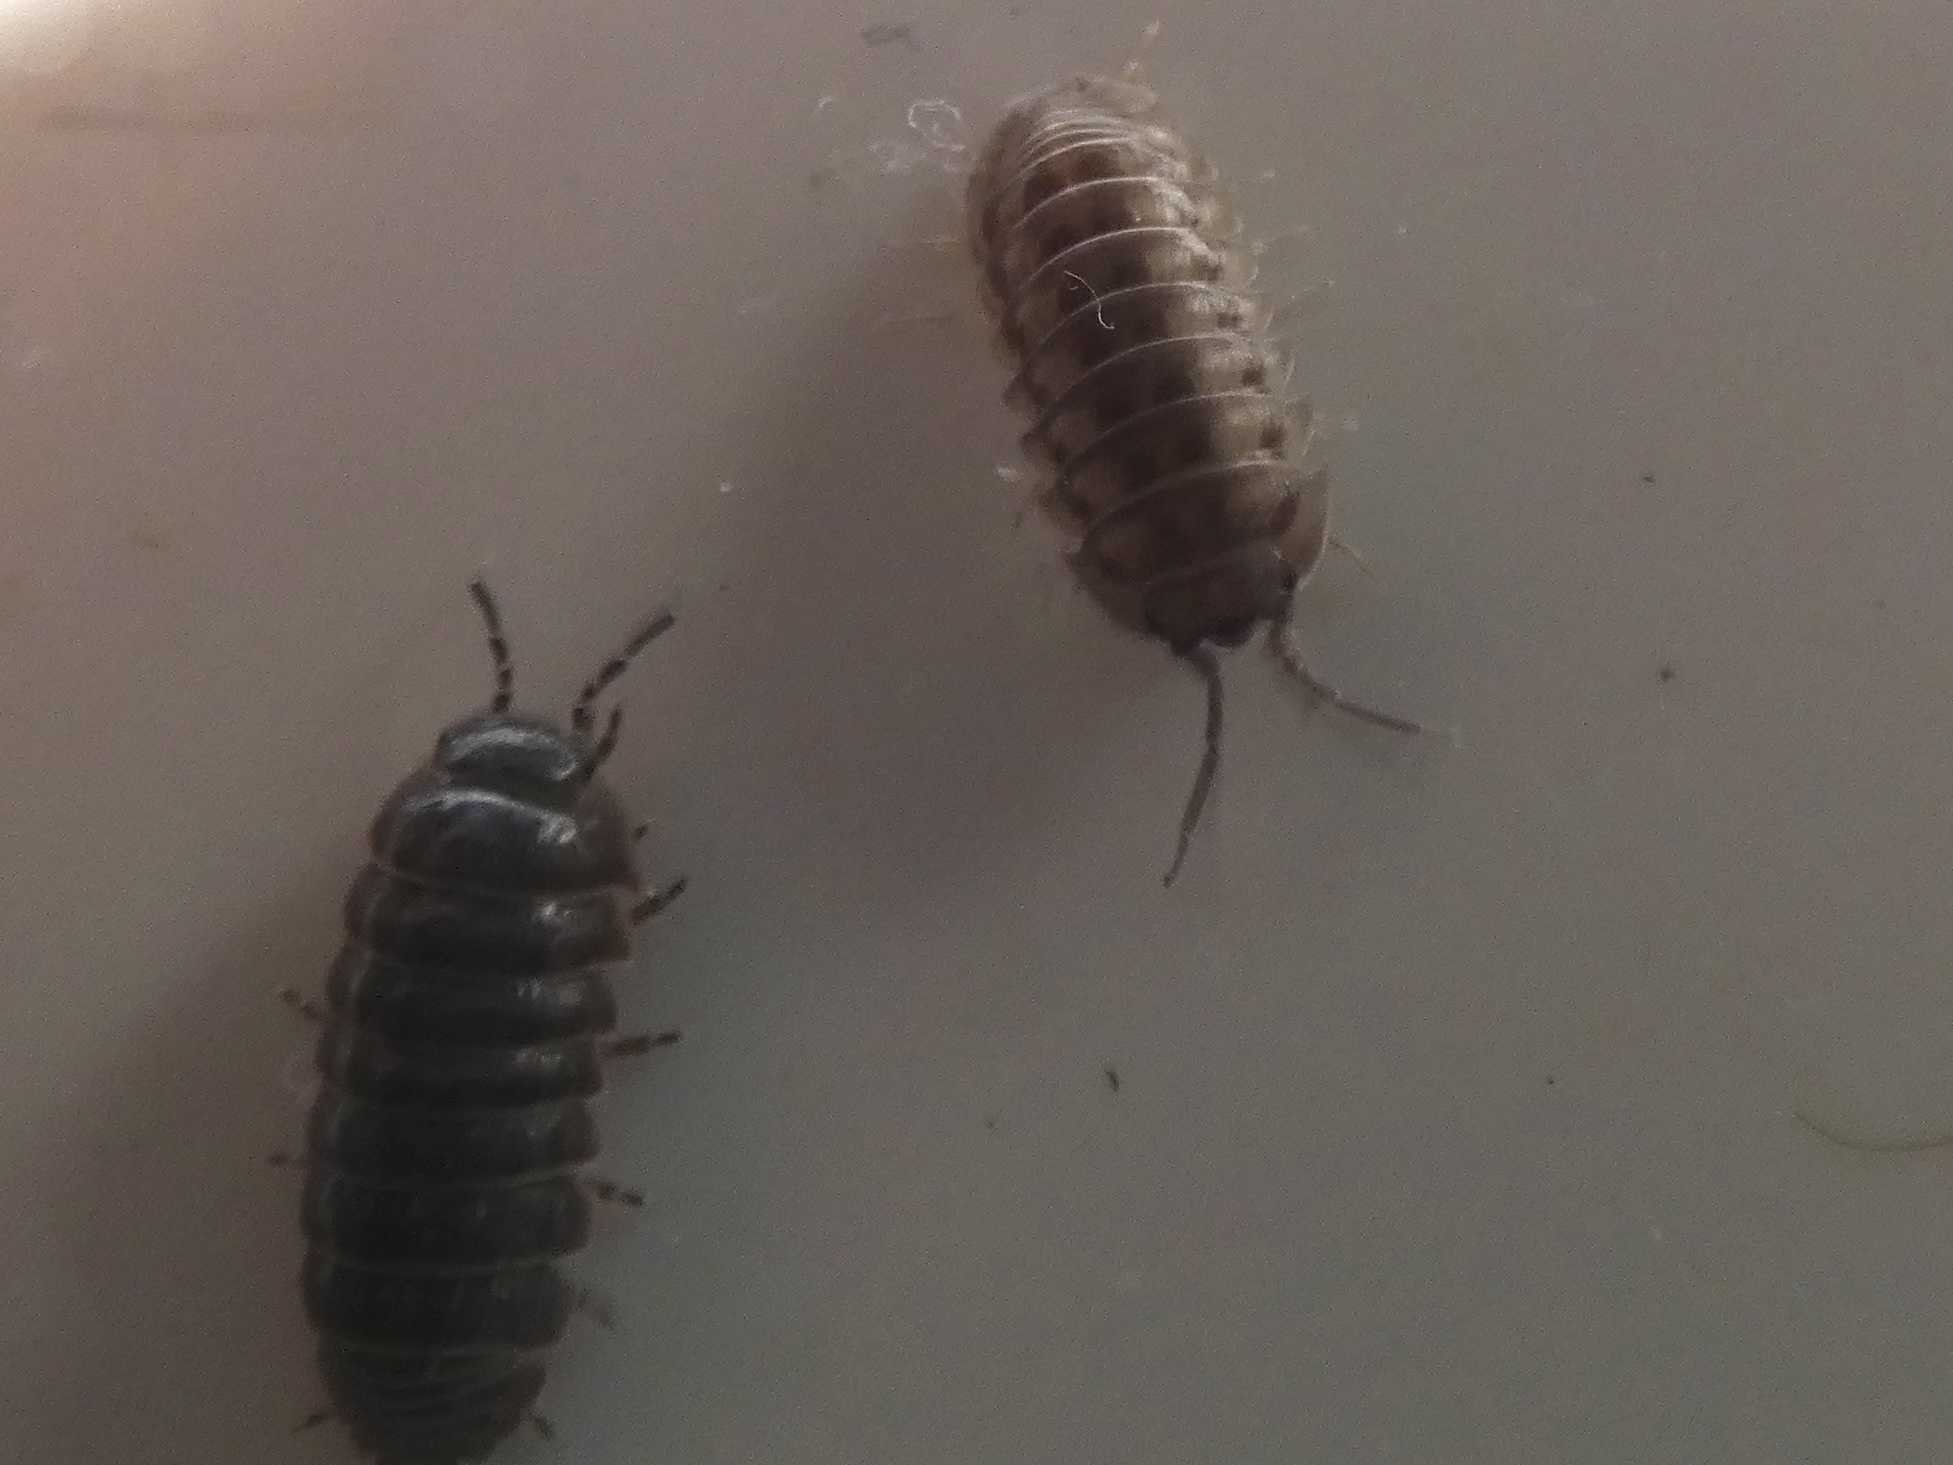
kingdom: Animalia
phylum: Arthropoda
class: Malacostraca
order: Isopoda
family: Armadillidiidae
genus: Armadillidium
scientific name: Armadillidium vulgare
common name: Common pill woodlouse
